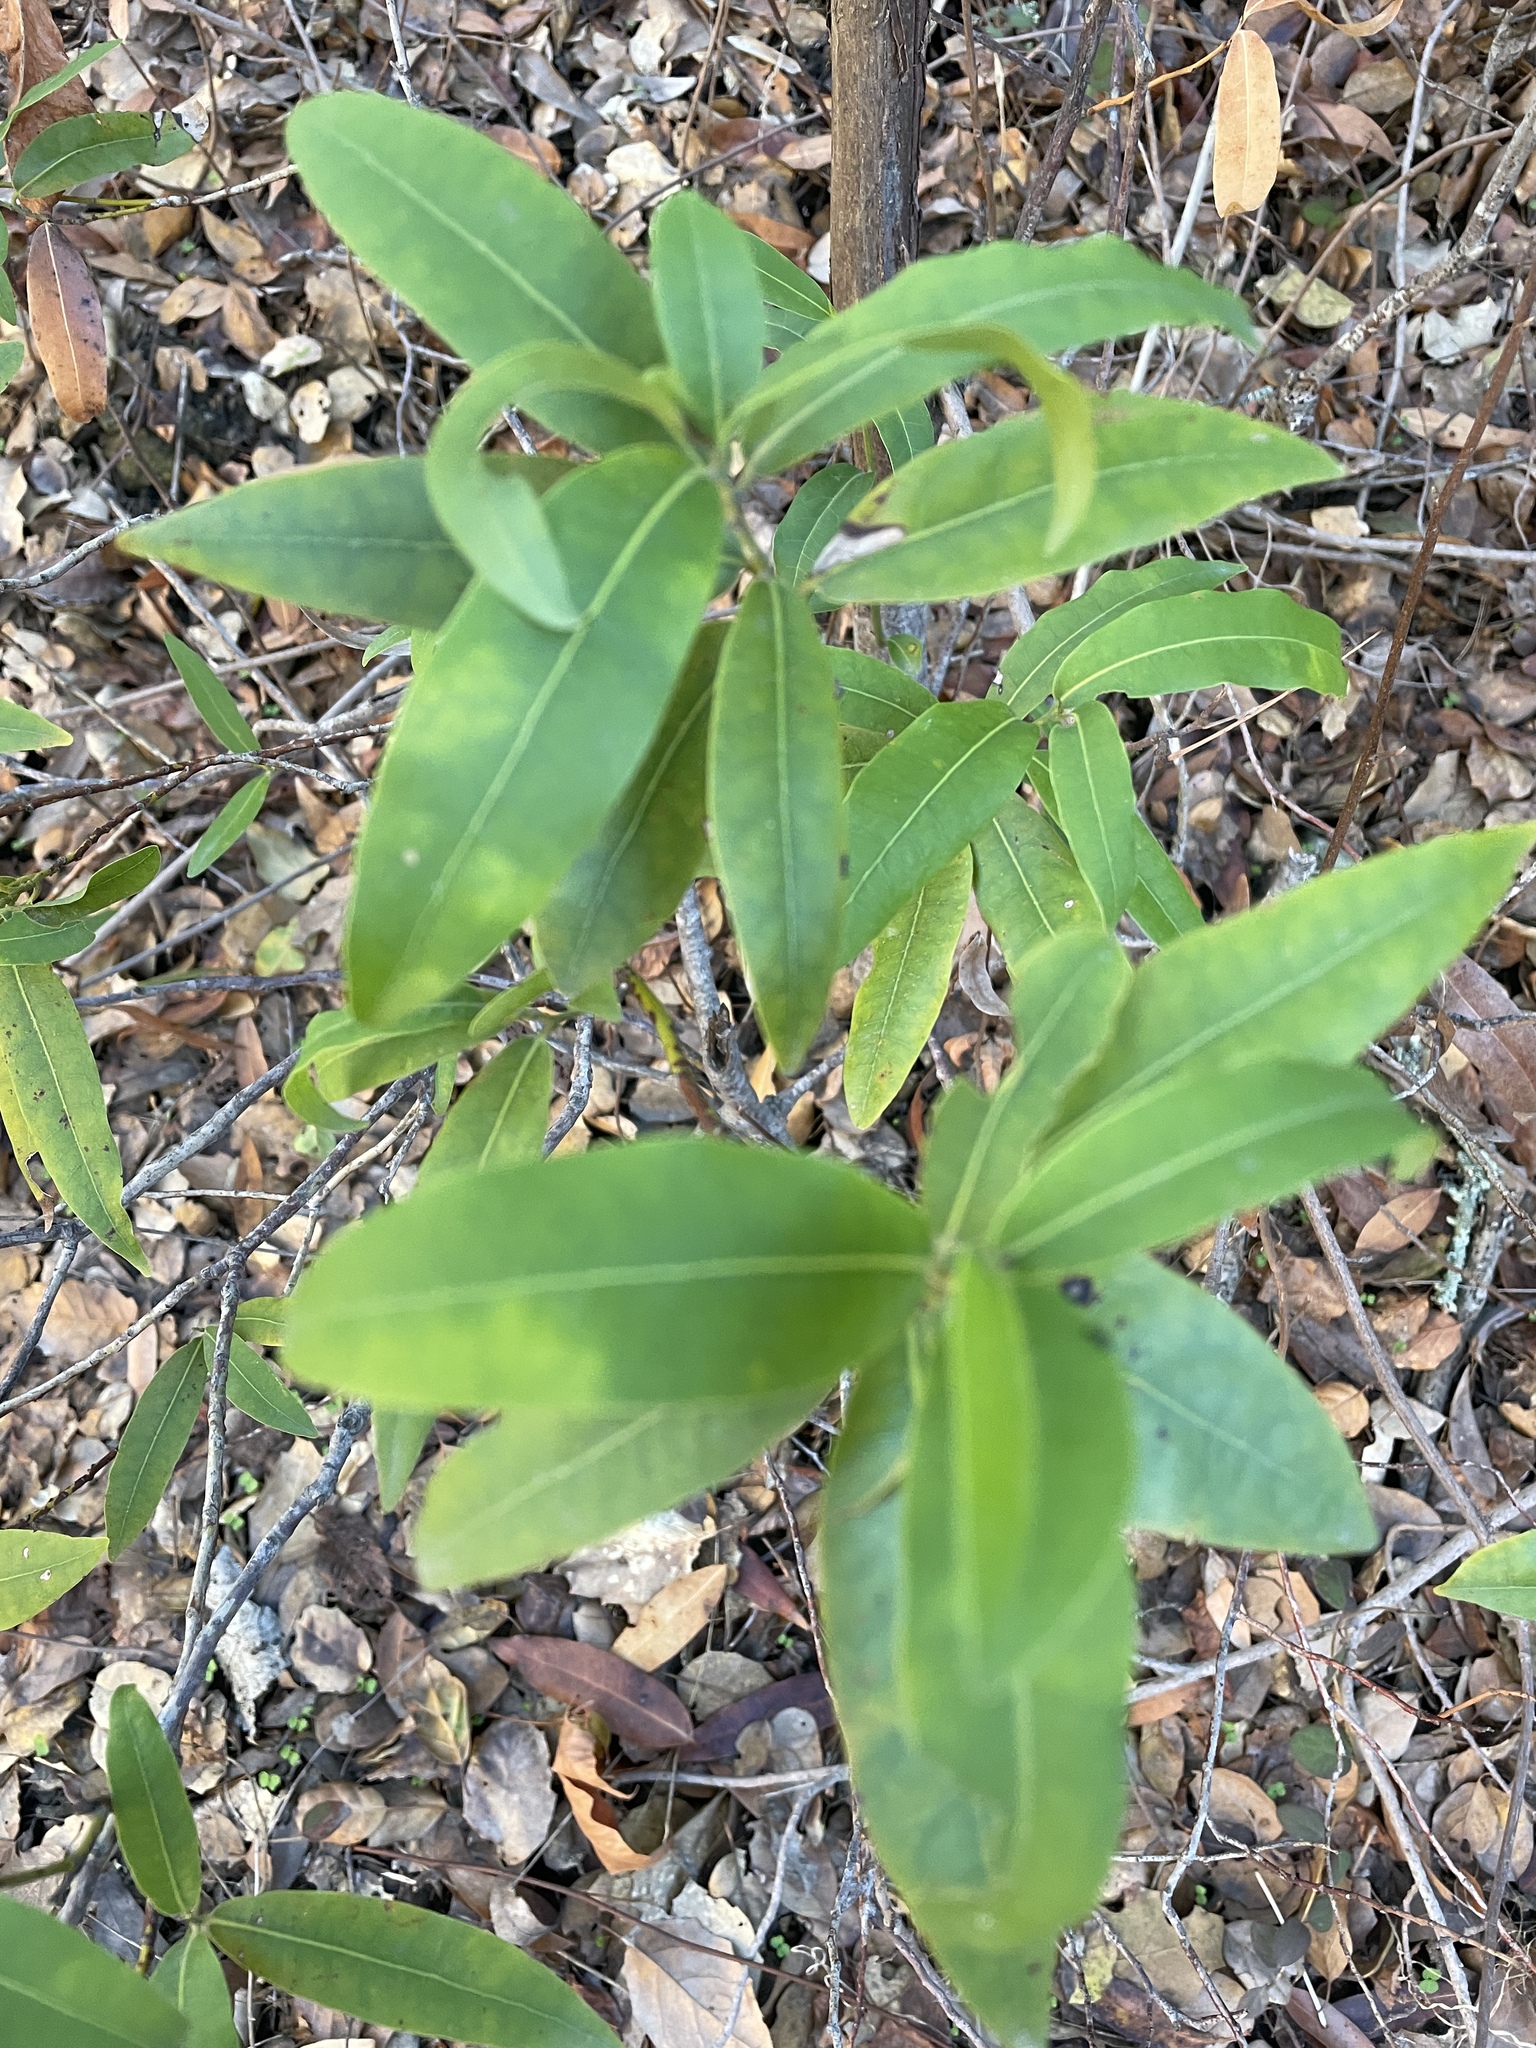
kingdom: Plantae
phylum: Tracheophyta
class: Magnoliopsida
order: Laurales
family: Lauraceae
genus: Umbellularia
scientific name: Umbellularia californica
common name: California bay
